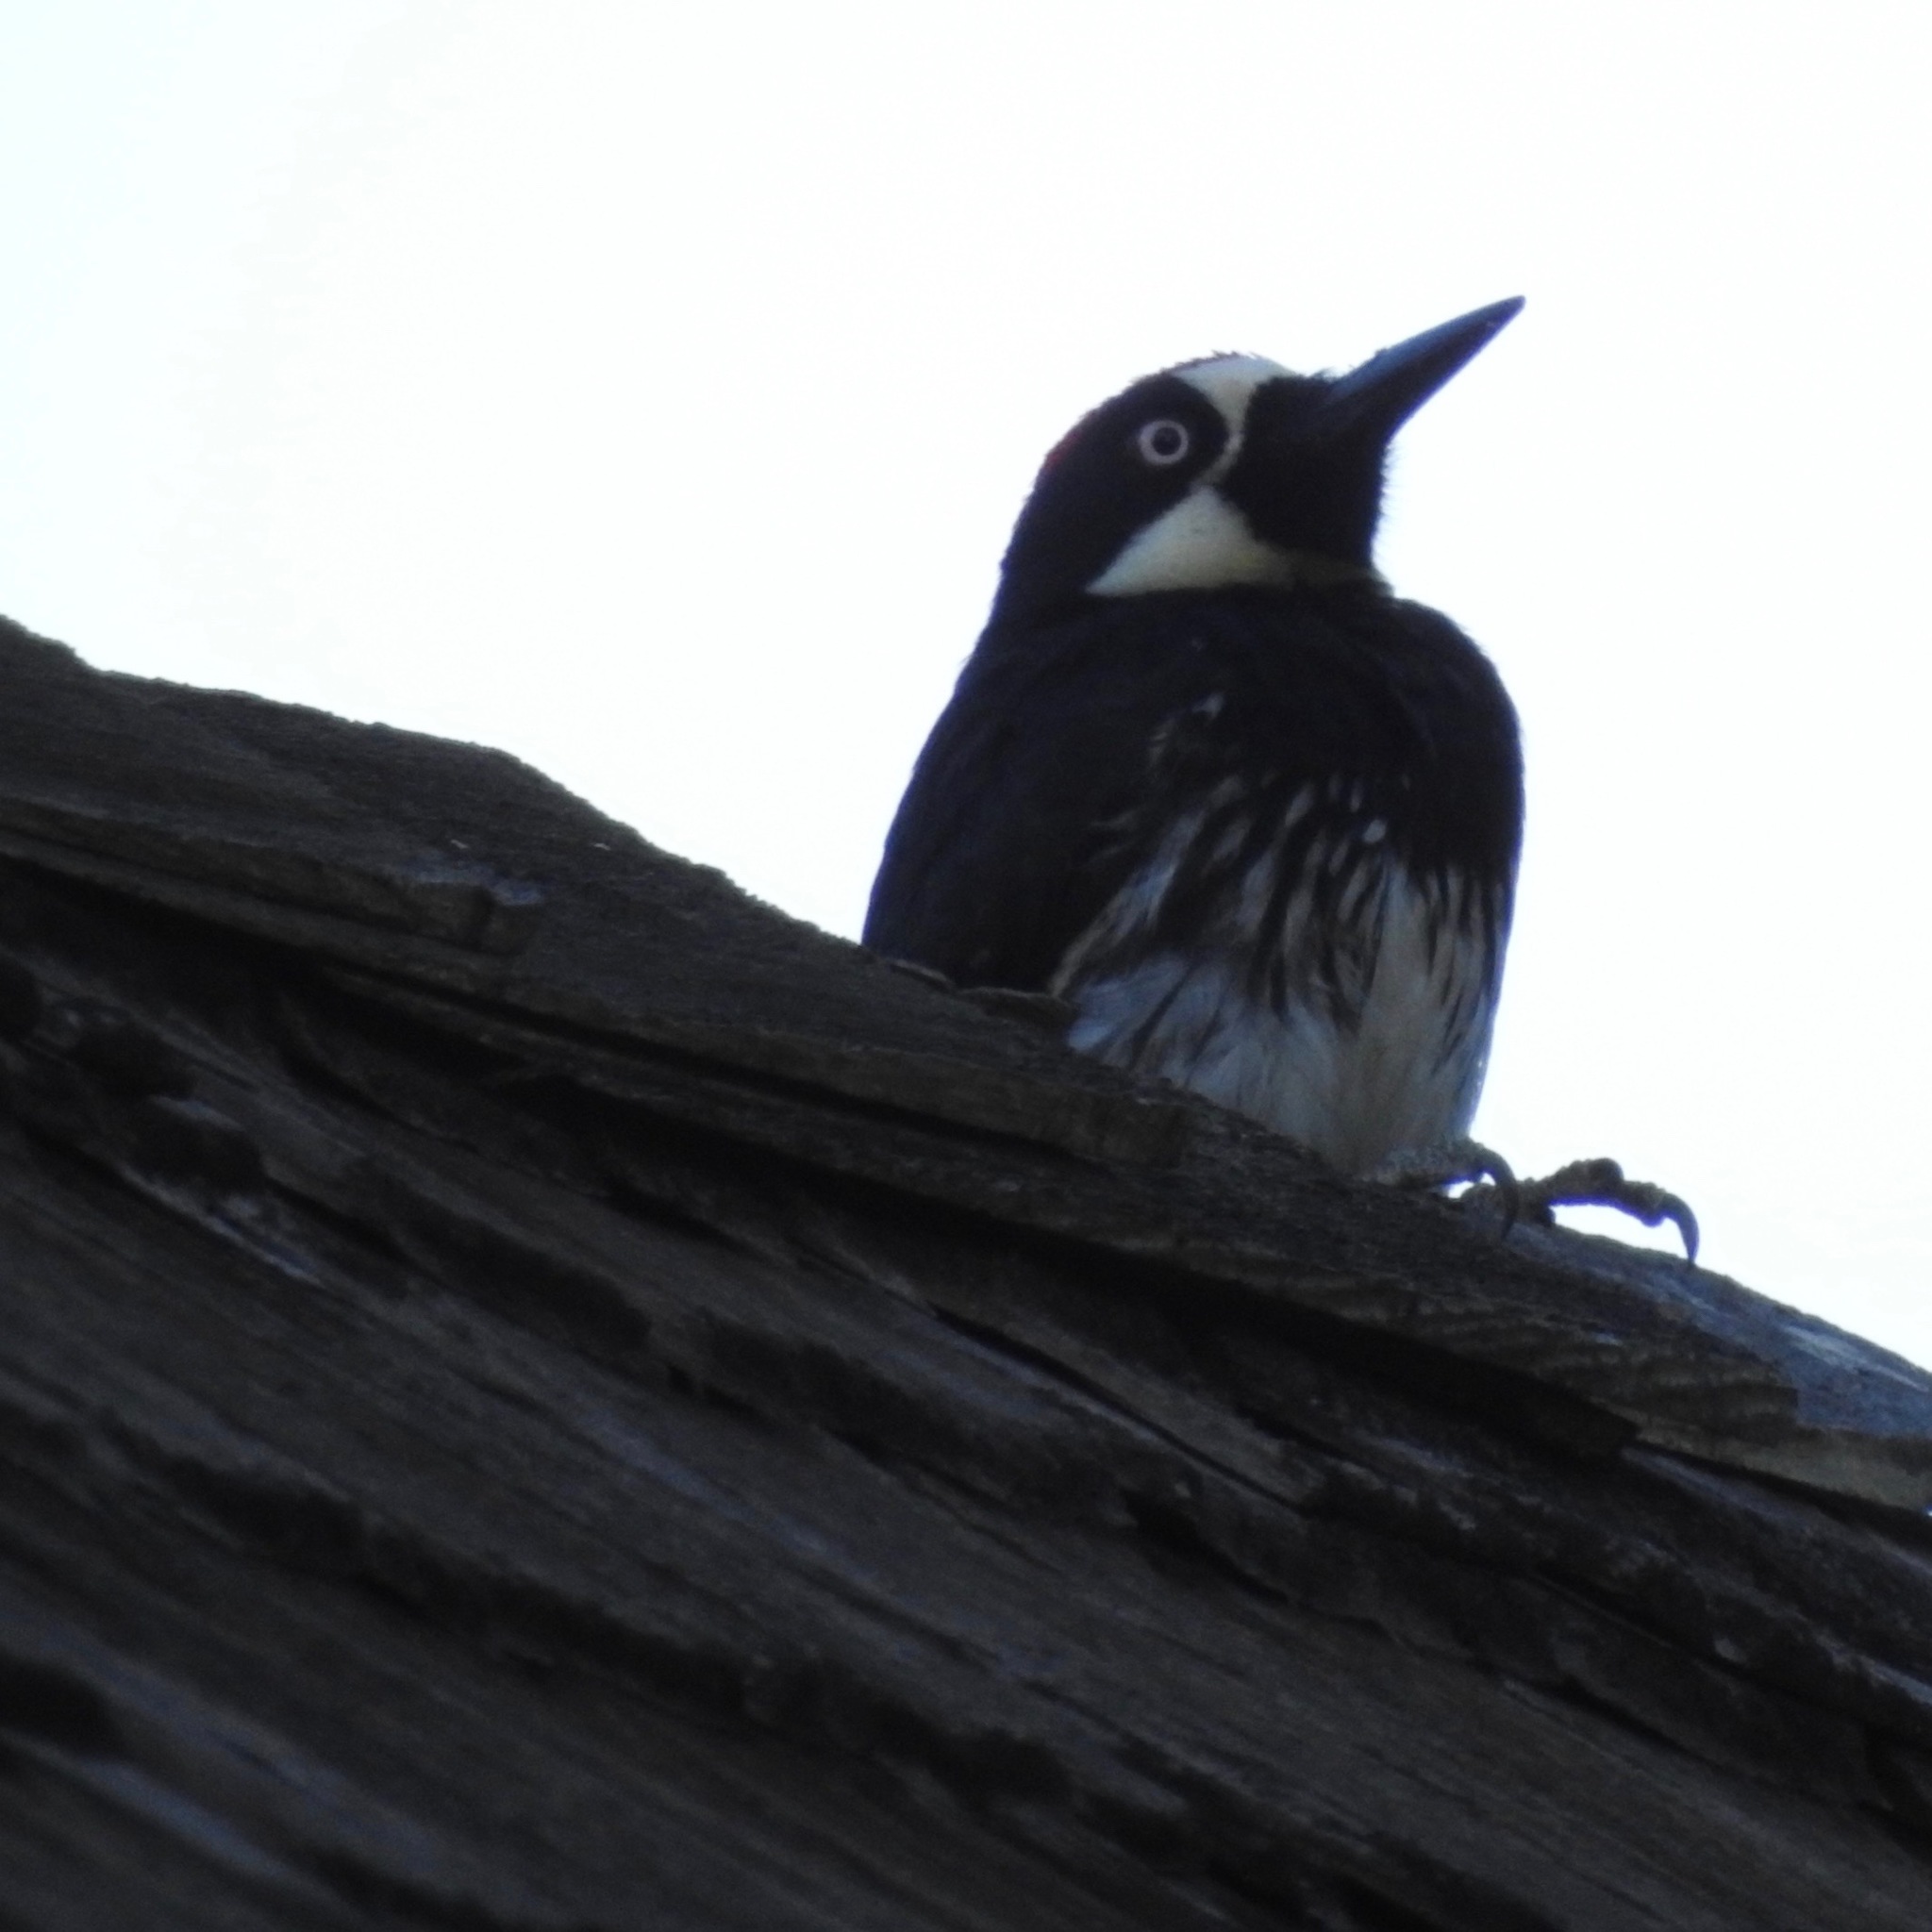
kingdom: Animalia
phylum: Chordata
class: Aves
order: Piciformes
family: Picidae
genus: Melanerpes
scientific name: Melanerpes formicivorus
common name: Acorn woodpecker
